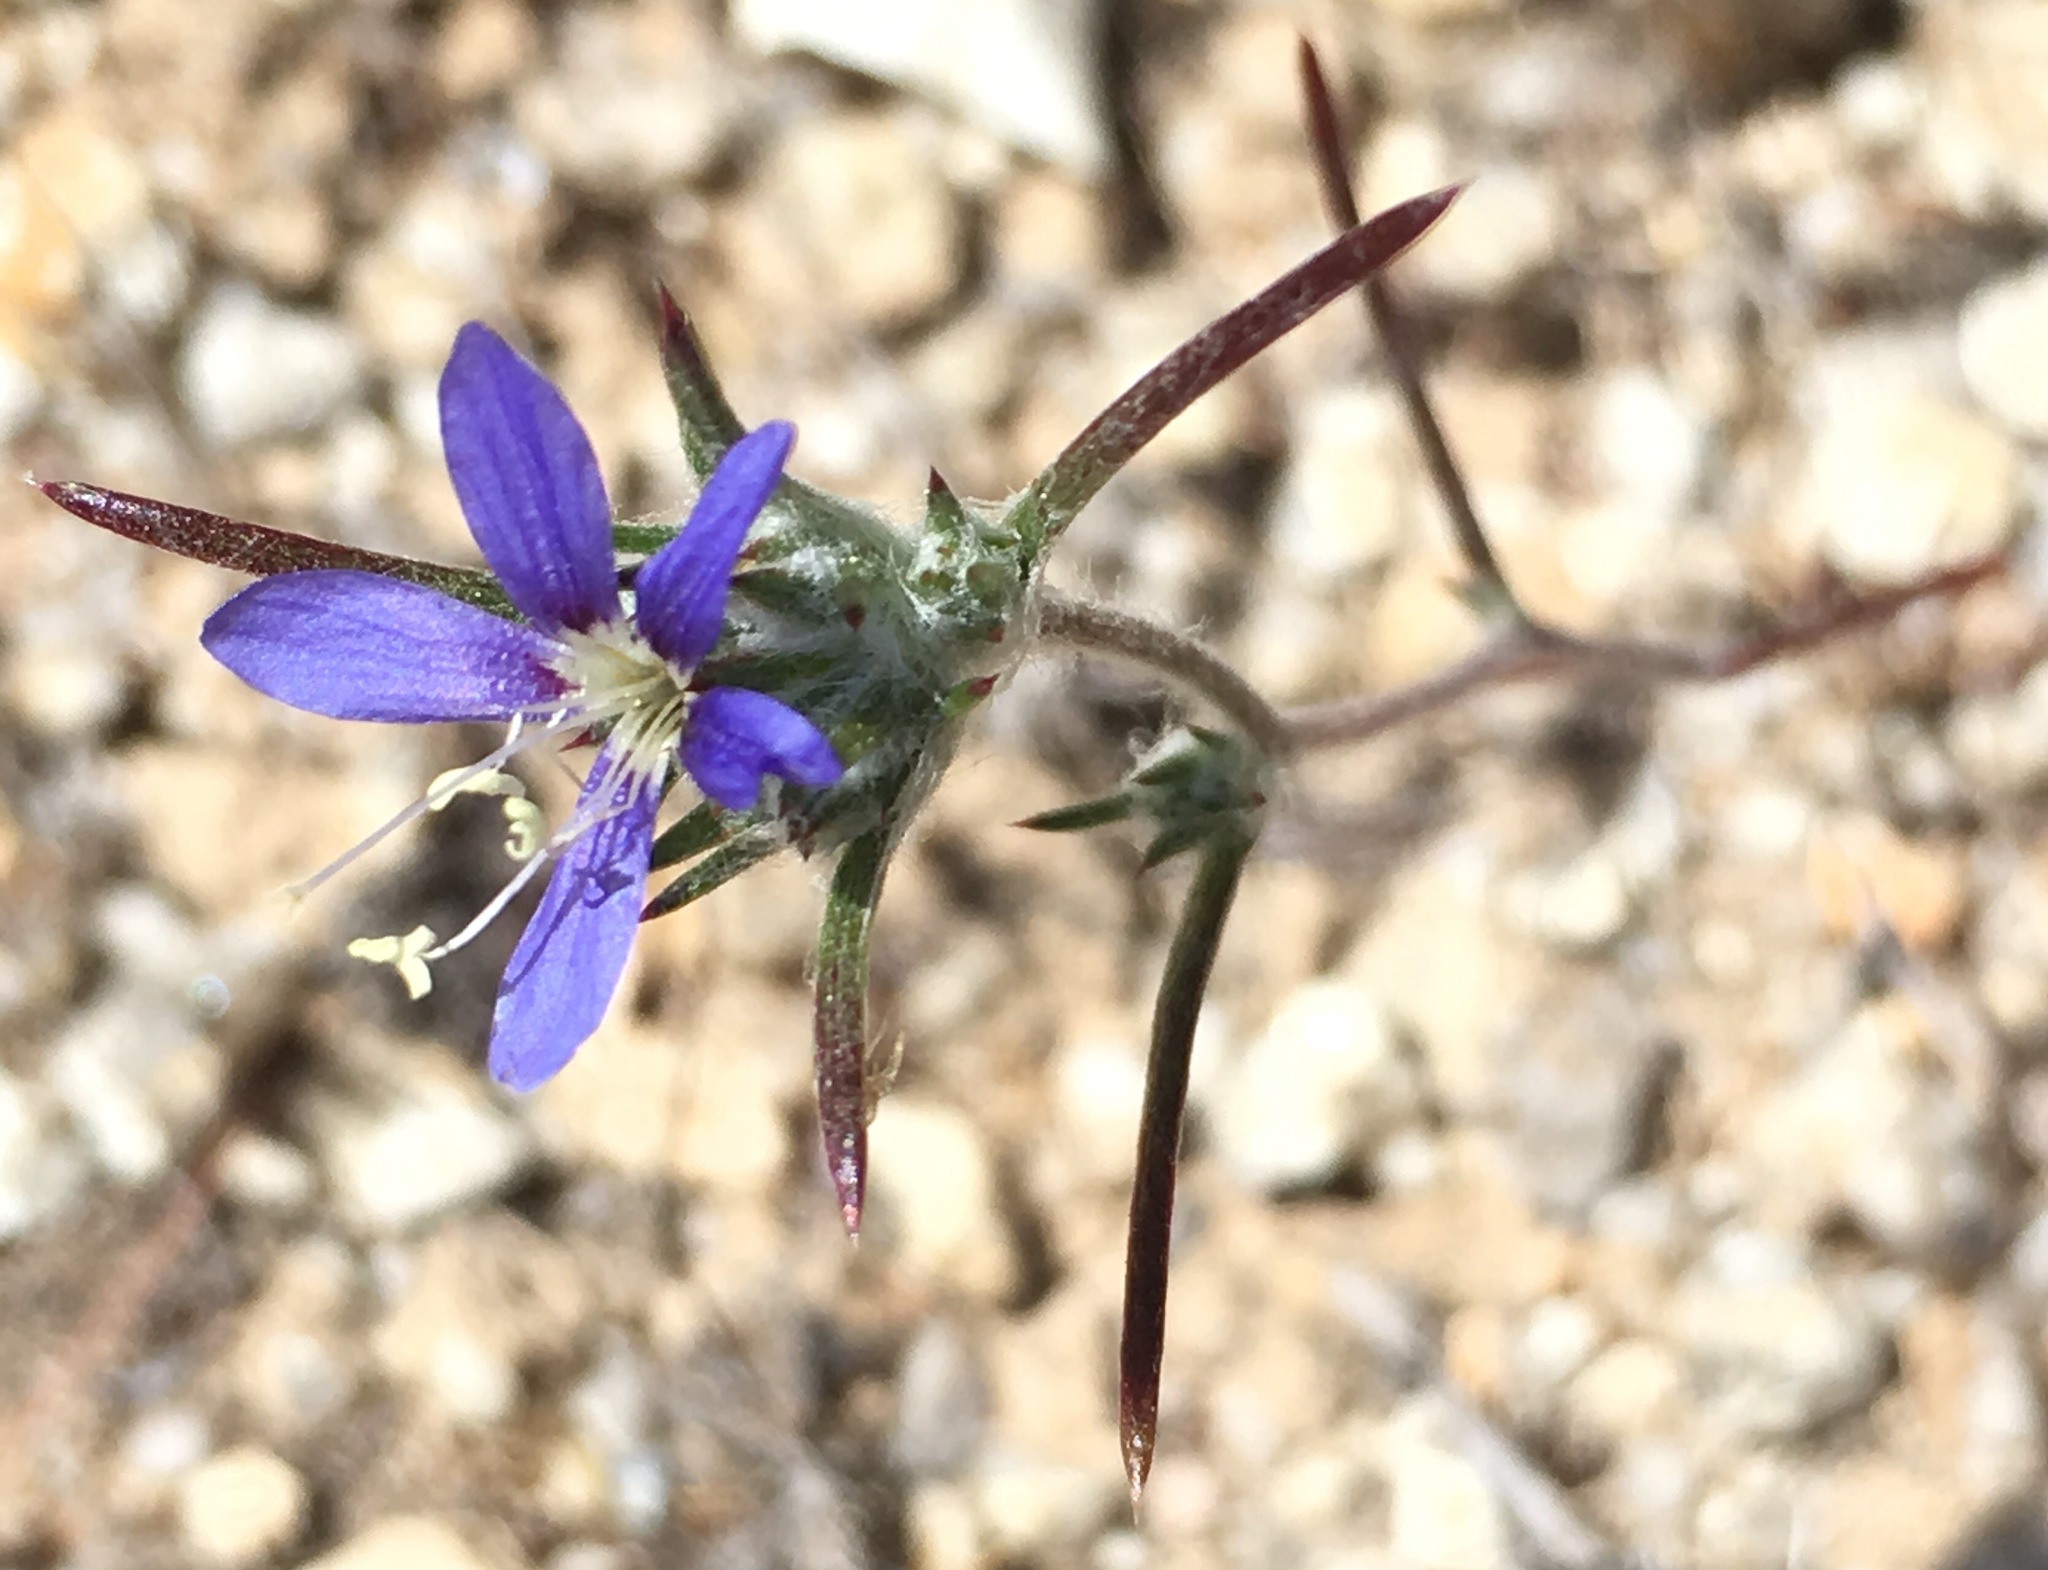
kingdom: Plantae
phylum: Tracheophyta
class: Magnoliopsida
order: Ericales
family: Polemoniaceae
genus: Eriastrum
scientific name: Eriastrum virgatum
